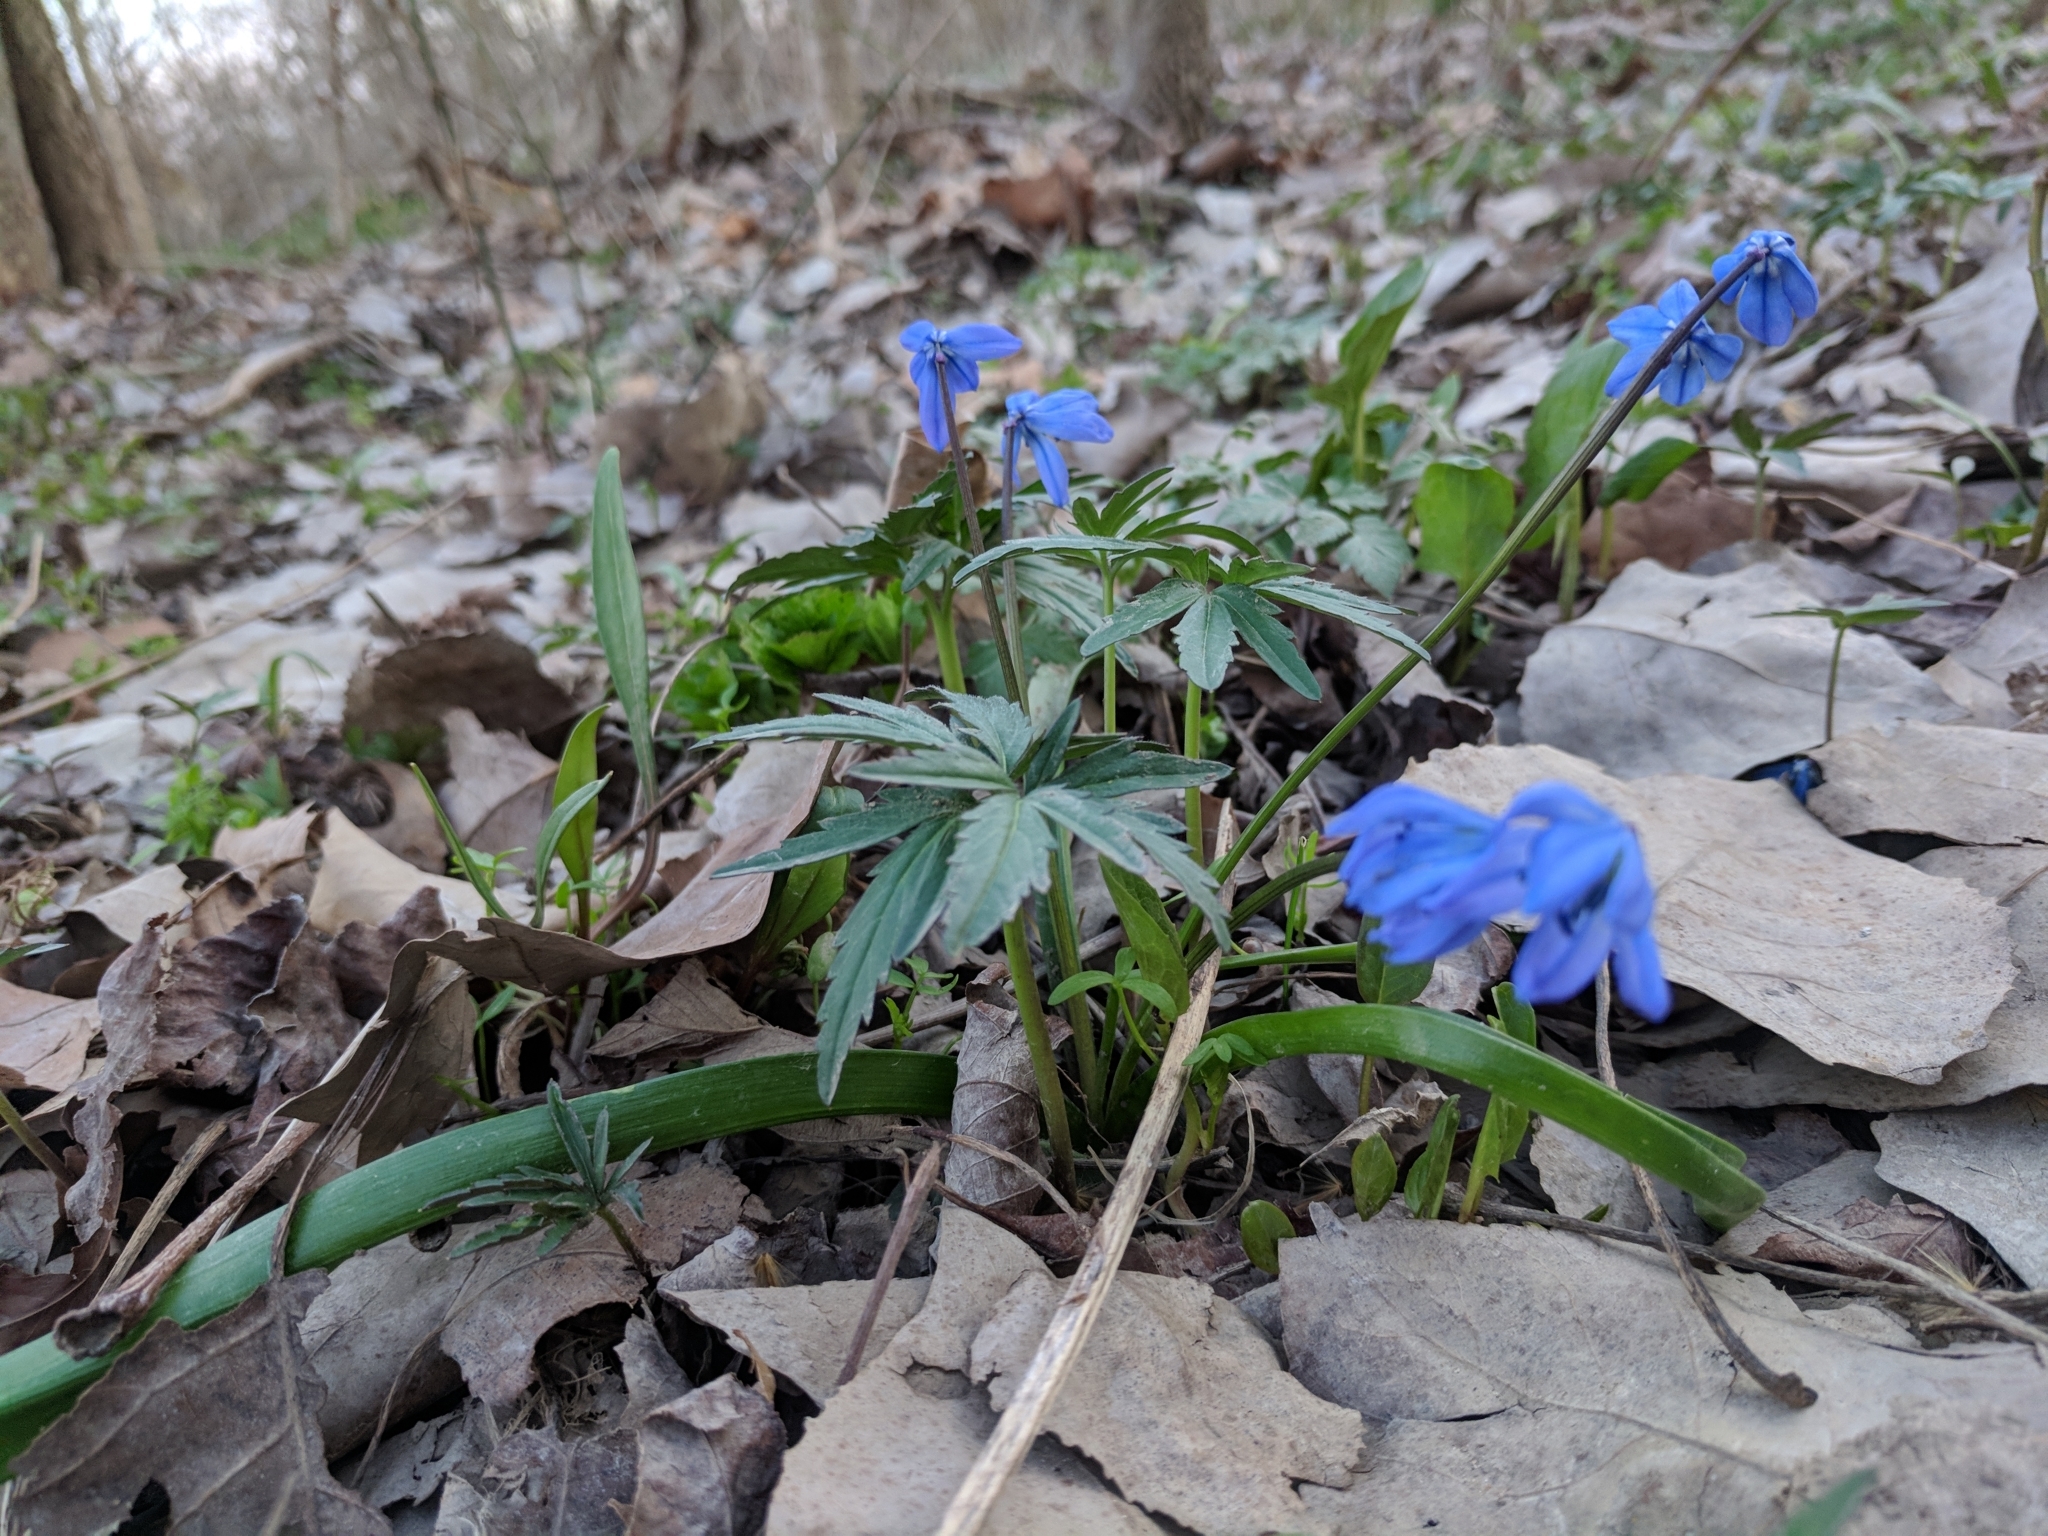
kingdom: Plantae
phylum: Tracheophyta
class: Liliopsida
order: Asparagales
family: Asparagaceae
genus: Scilla
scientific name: Scilla siberica
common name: Siberian squill
